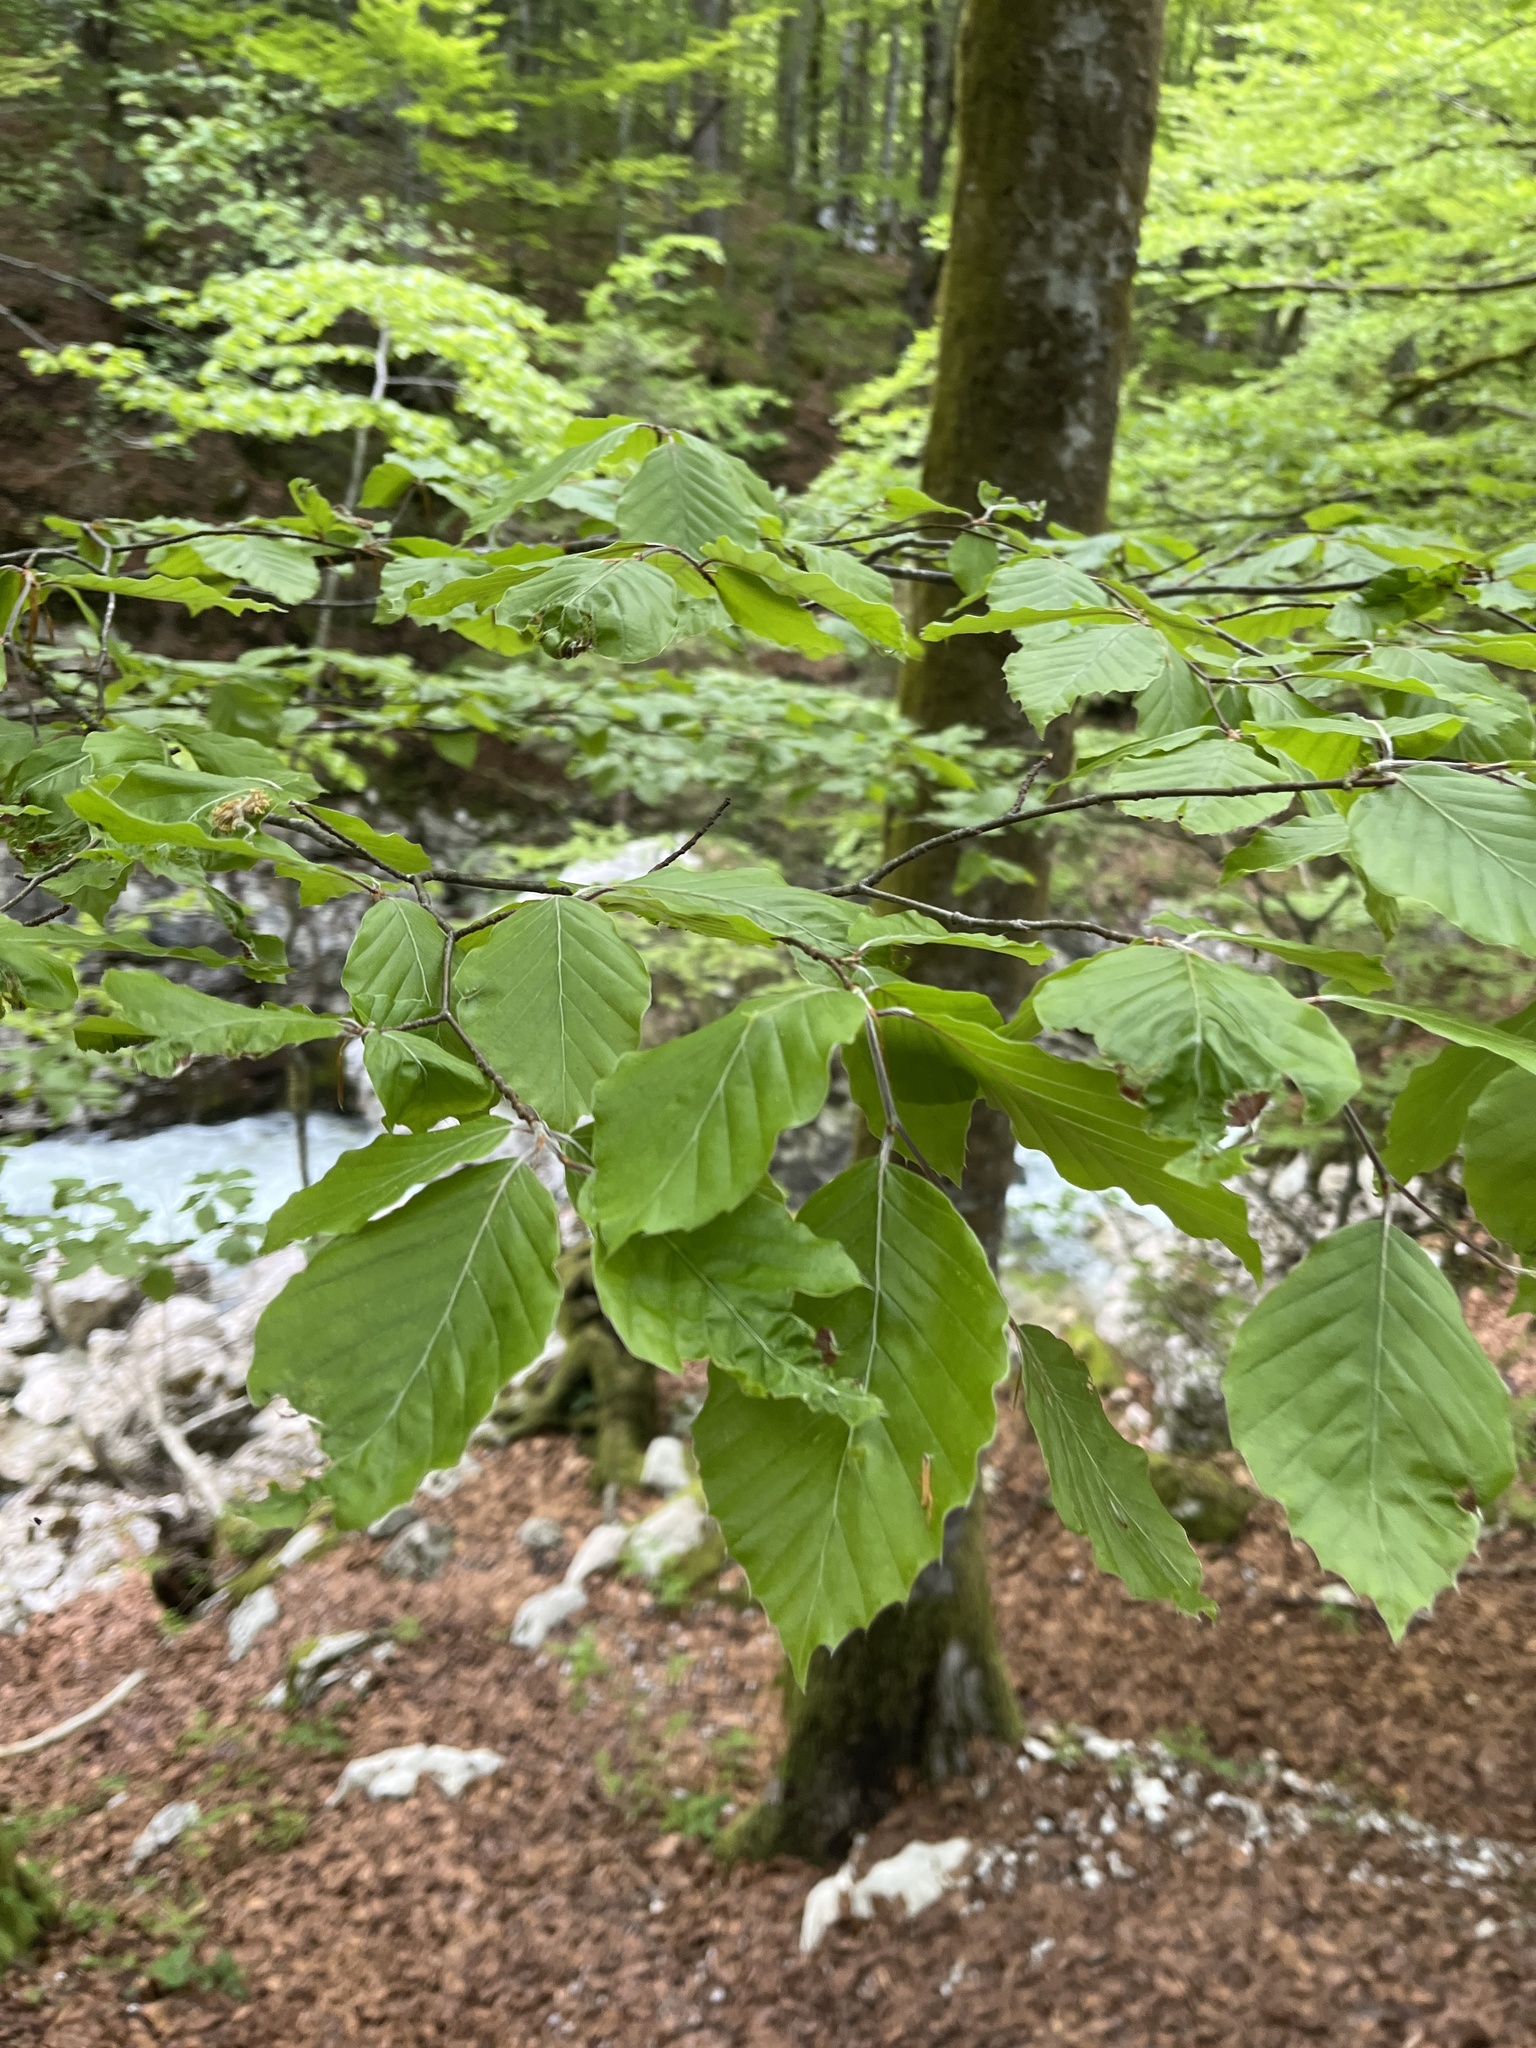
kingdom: Plantae
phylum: Tracheophyta
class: Magnoliopsida
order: Fagales
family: Fagaceae
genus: Fagus
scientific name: Fagus sylvatica
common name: Beech
